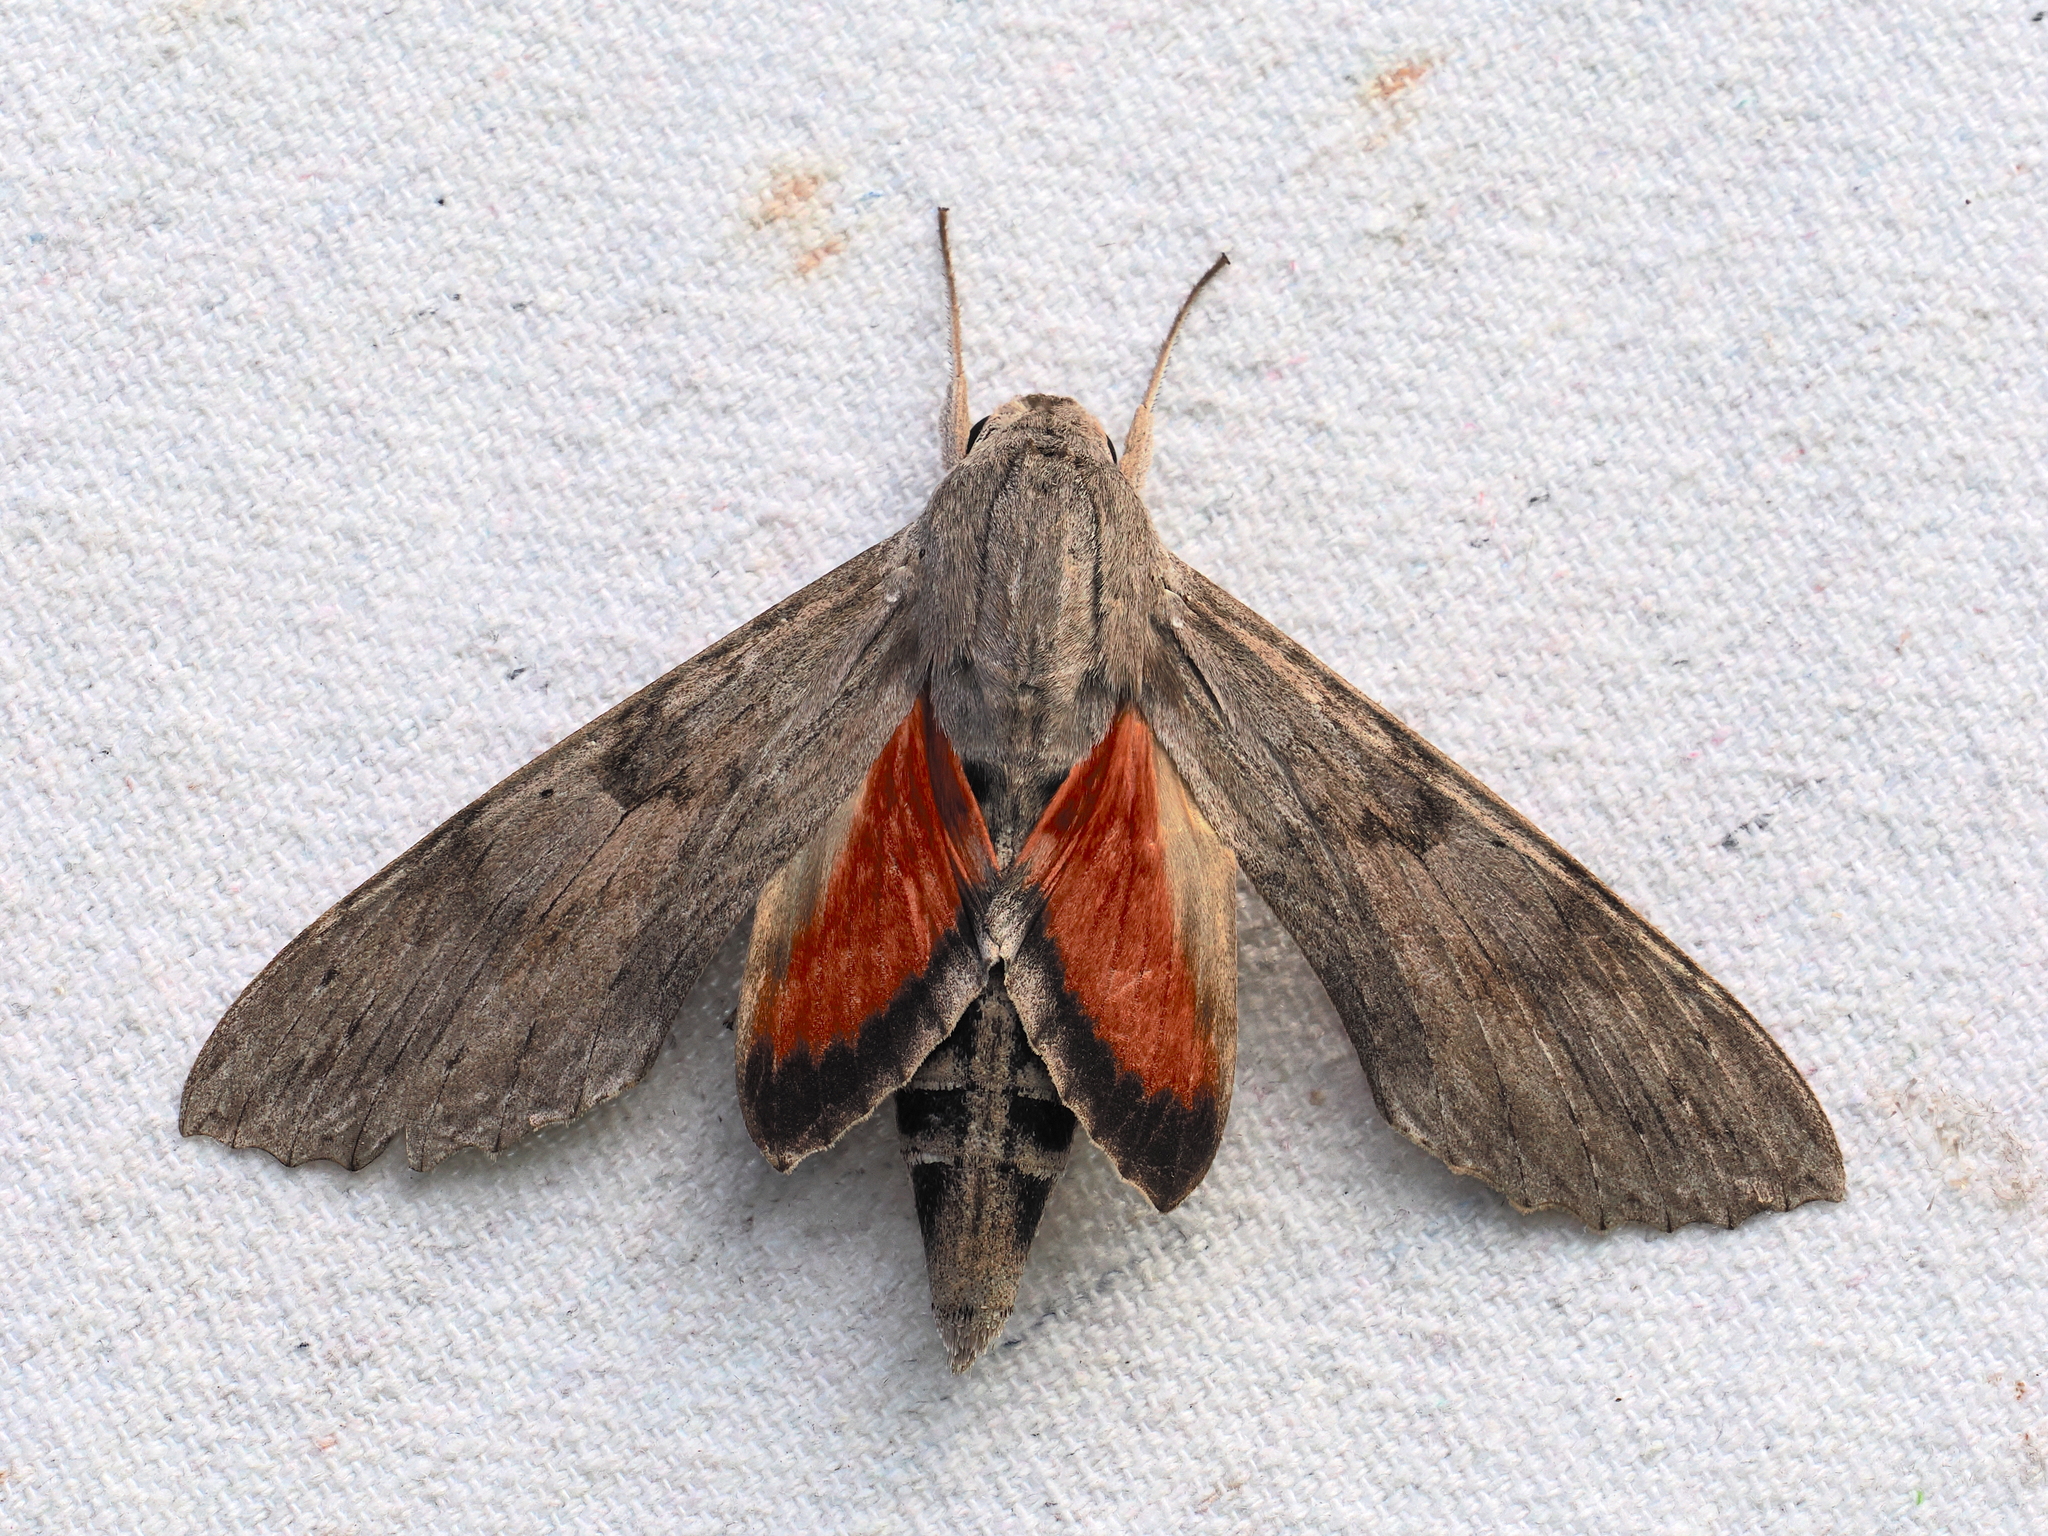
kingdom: Animalia
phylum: Arthropoda
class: Insecta
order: Lepidoptera
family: Sphingidae
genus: Erinnyis
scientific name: Erinnyis ello
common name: Ello sphinx
